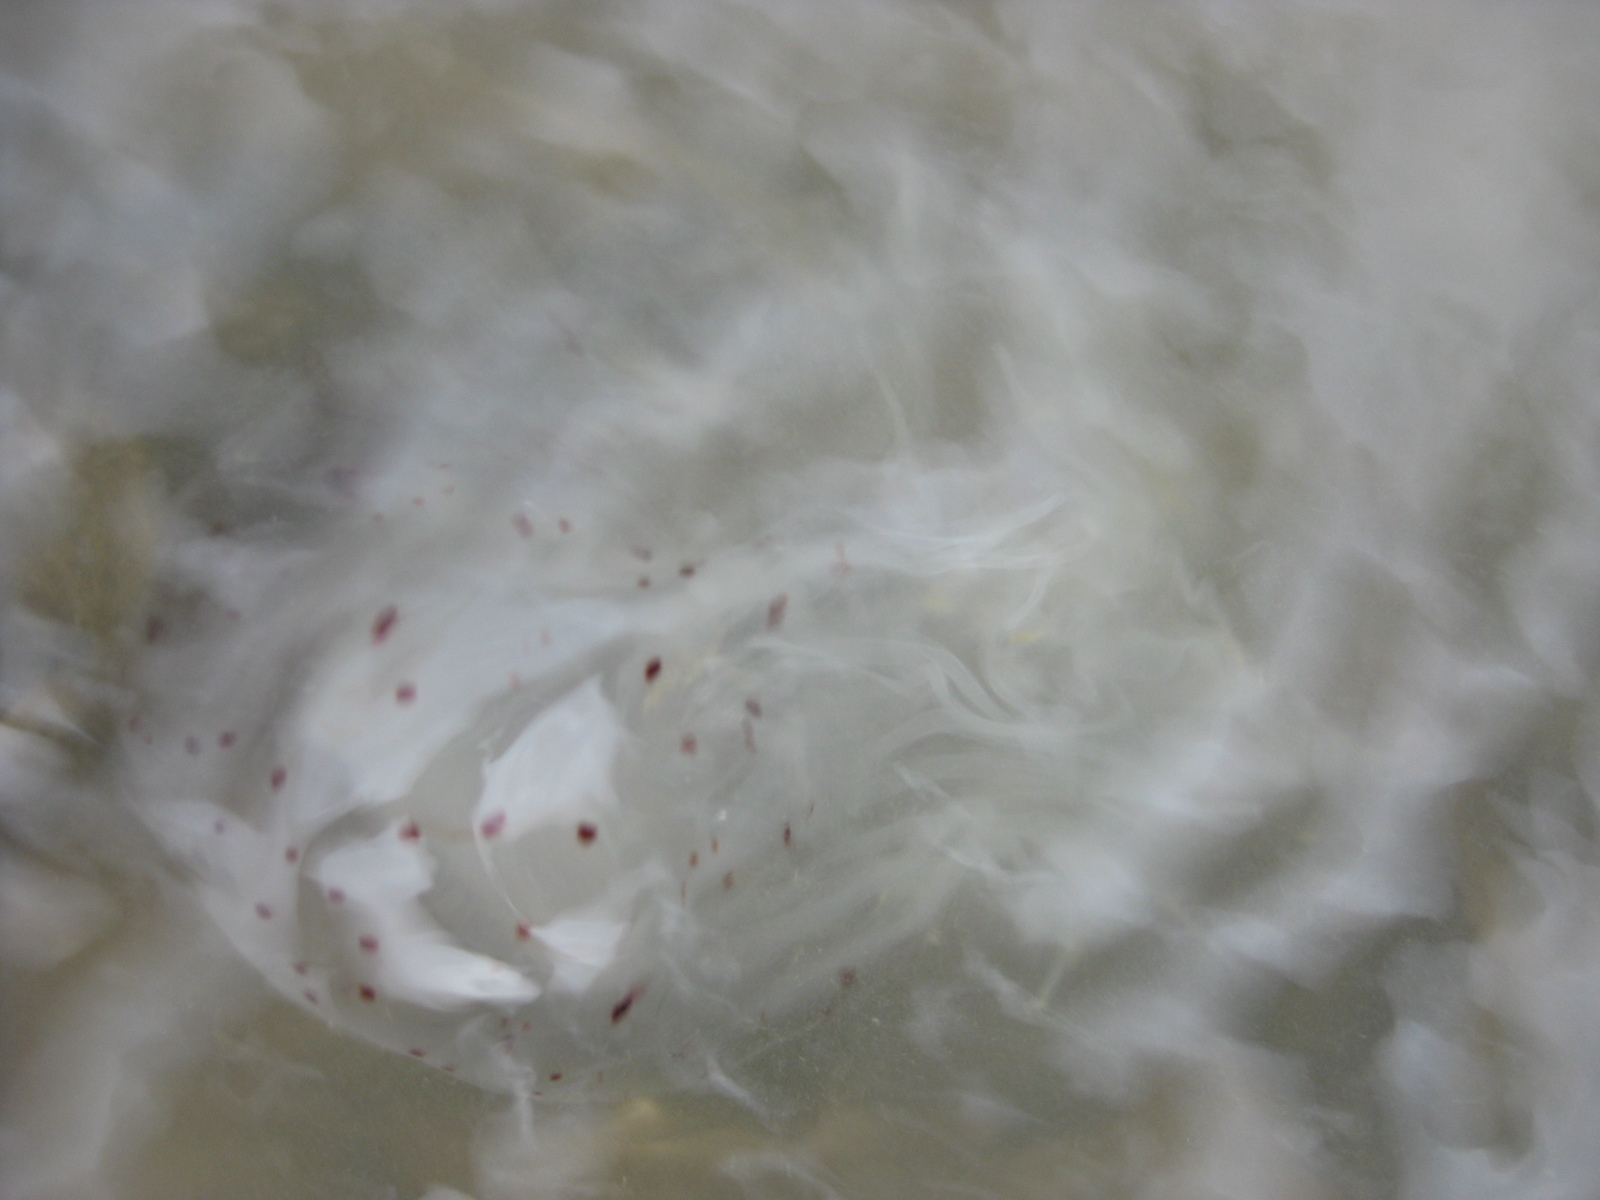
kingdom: Animalia
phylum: Cnidaria
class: Scyphozoa
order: Semaeostomeae
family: Cyaneidae
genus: Desmonema
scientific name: Desmonema gaudichaudi
